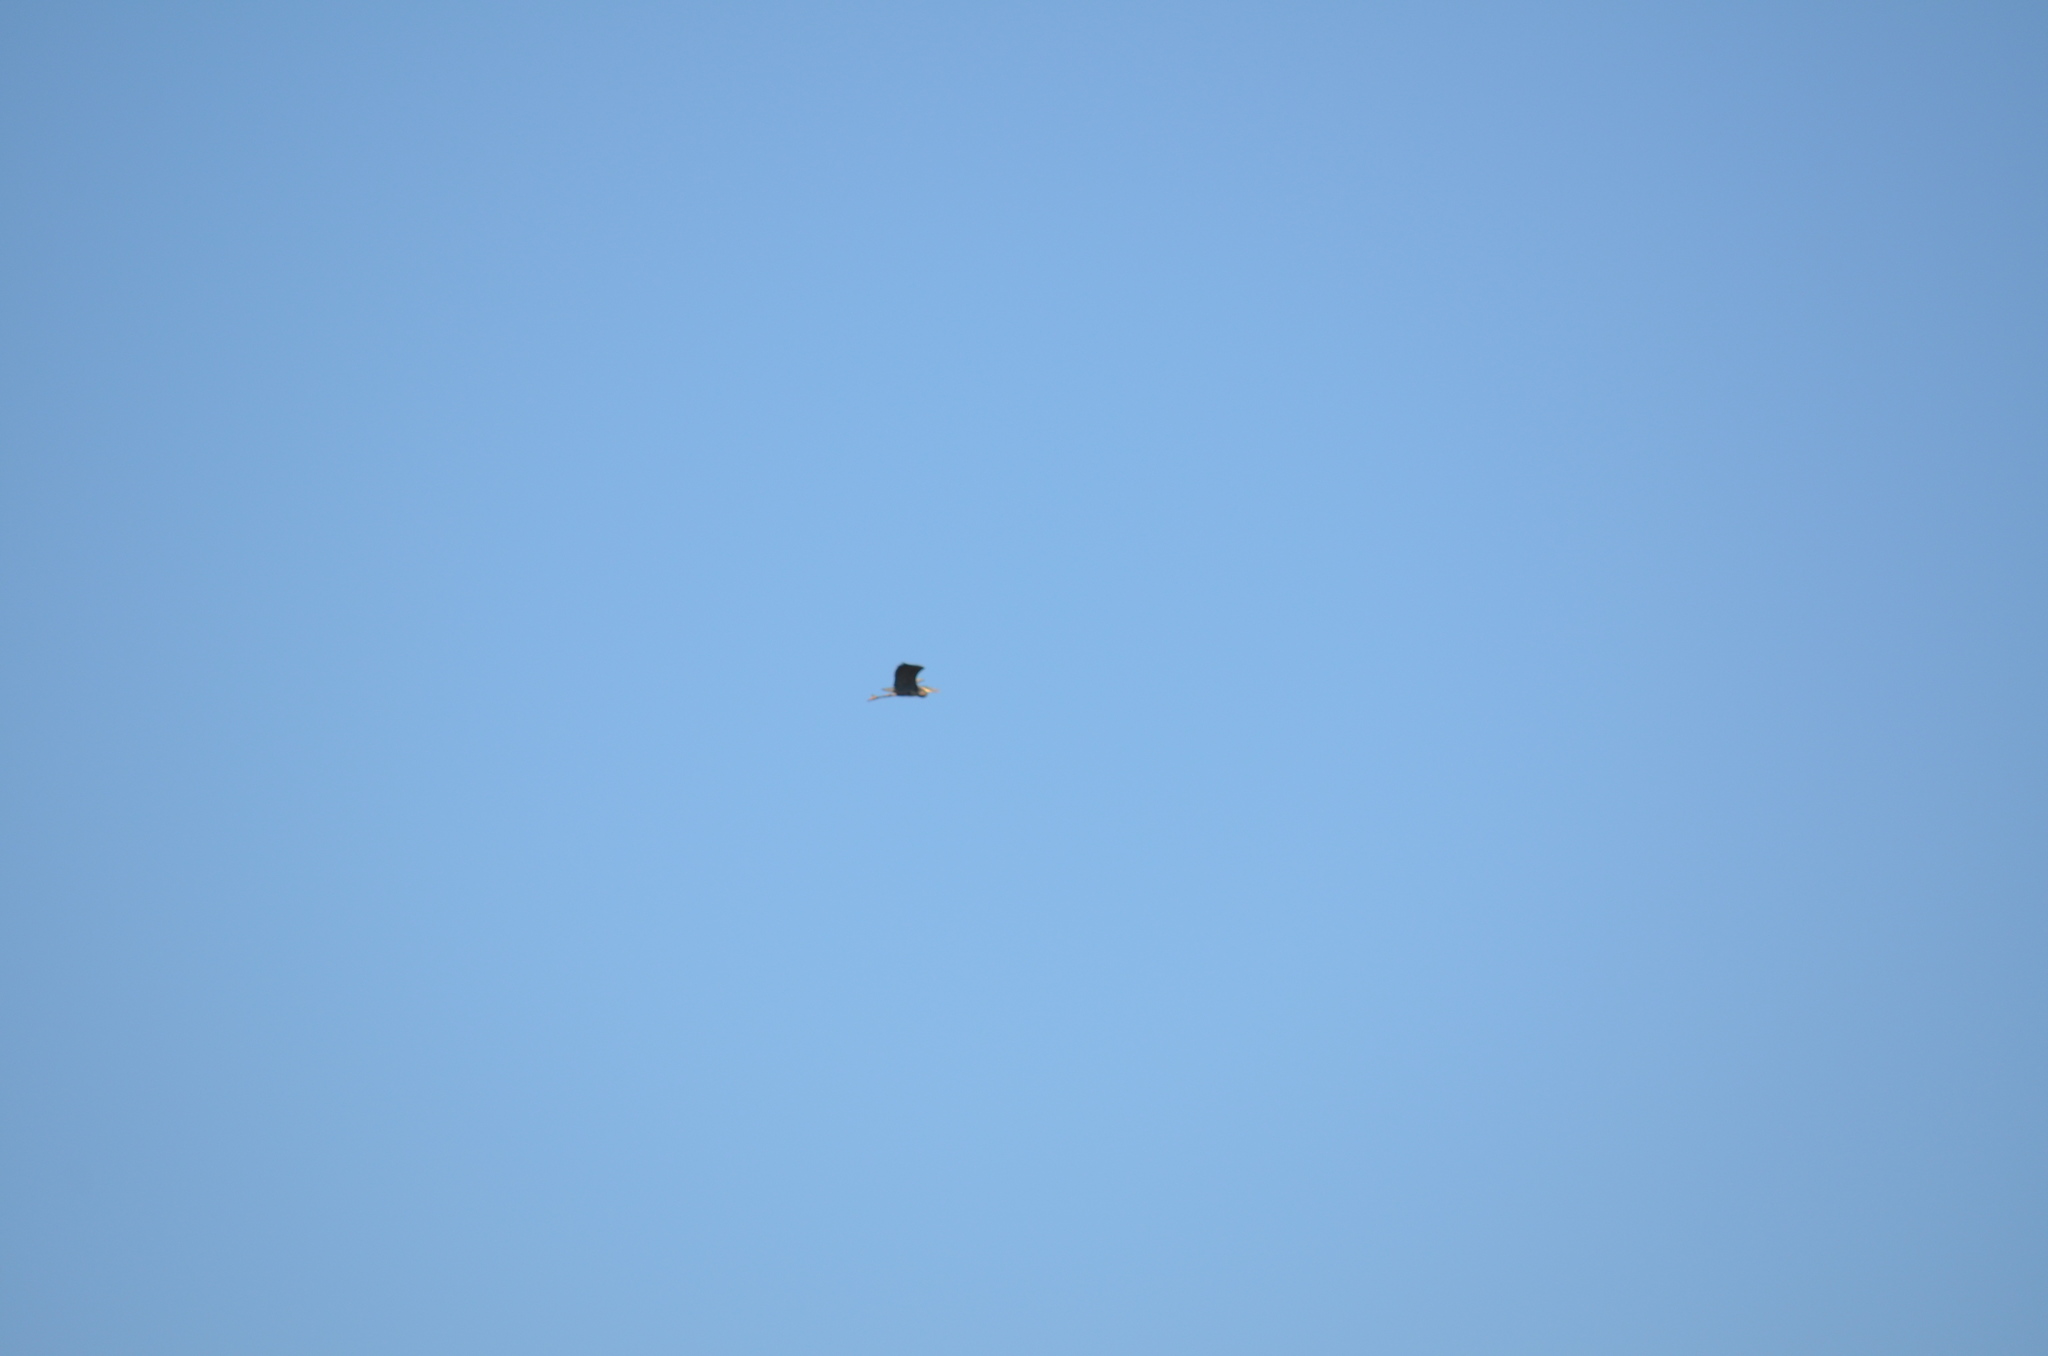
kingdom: Animalia
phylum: Chordata
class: Aves
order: Pelecaniformes
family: Ardeidae
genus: Ardea
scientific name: Ardea herodias
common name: Great blue heron
